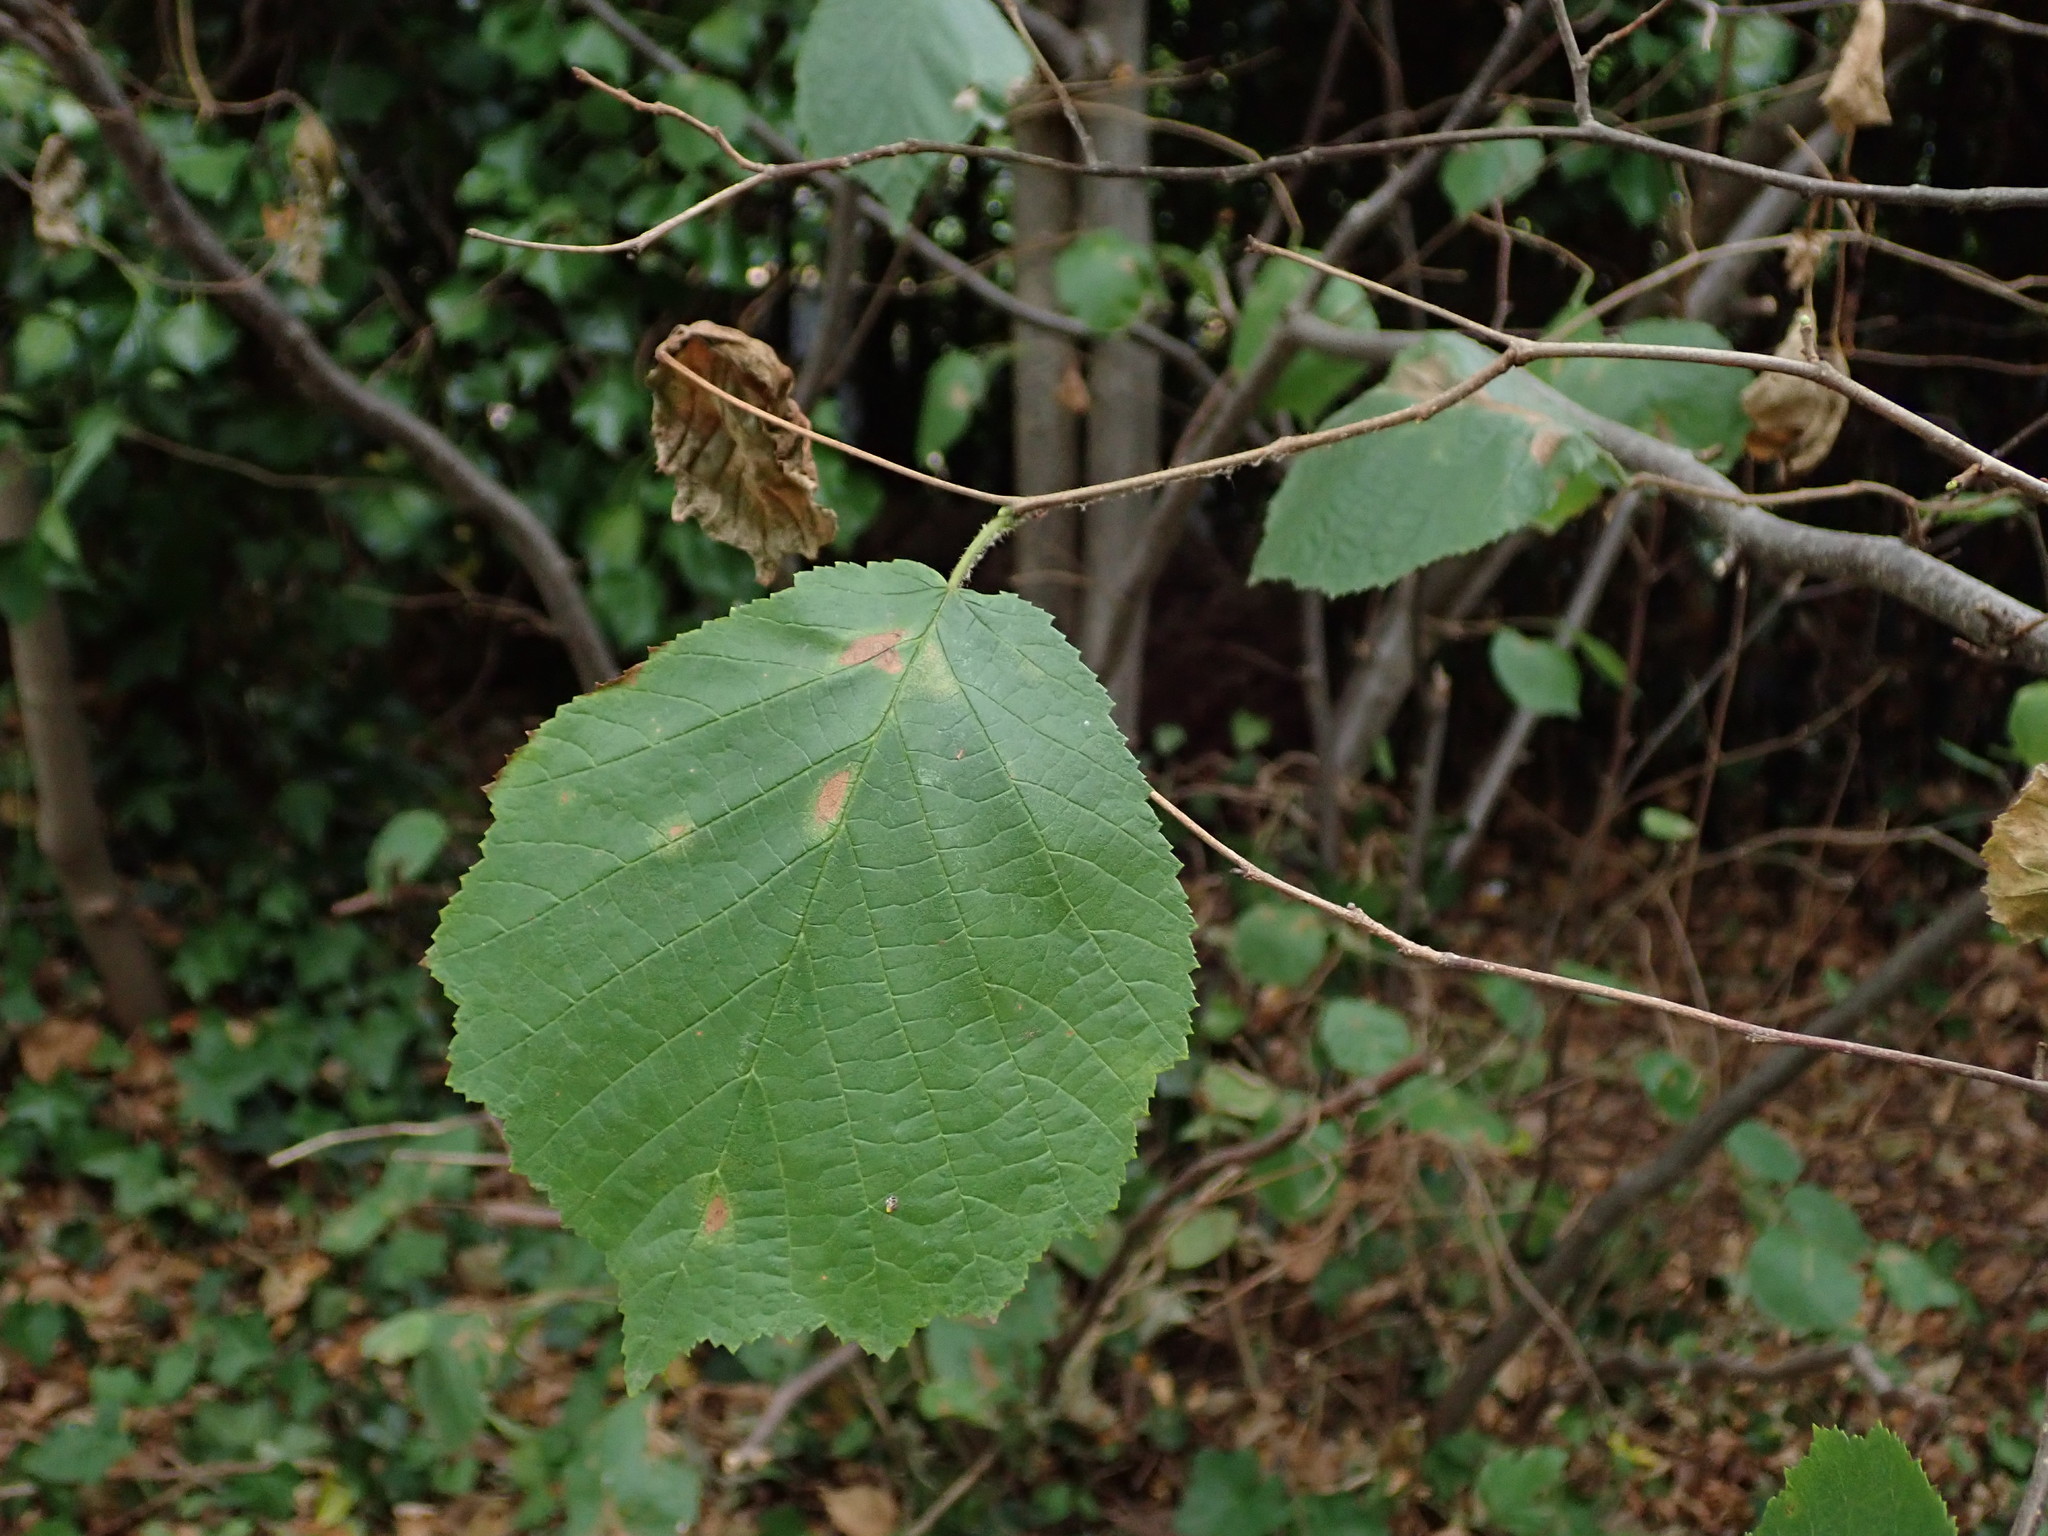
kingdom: Plantae
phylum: Tracheophyta
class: Magnoliopsida
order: Fagales
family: Betulaceae
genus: Corylus
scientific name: Corylus avellana
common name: European hazel
